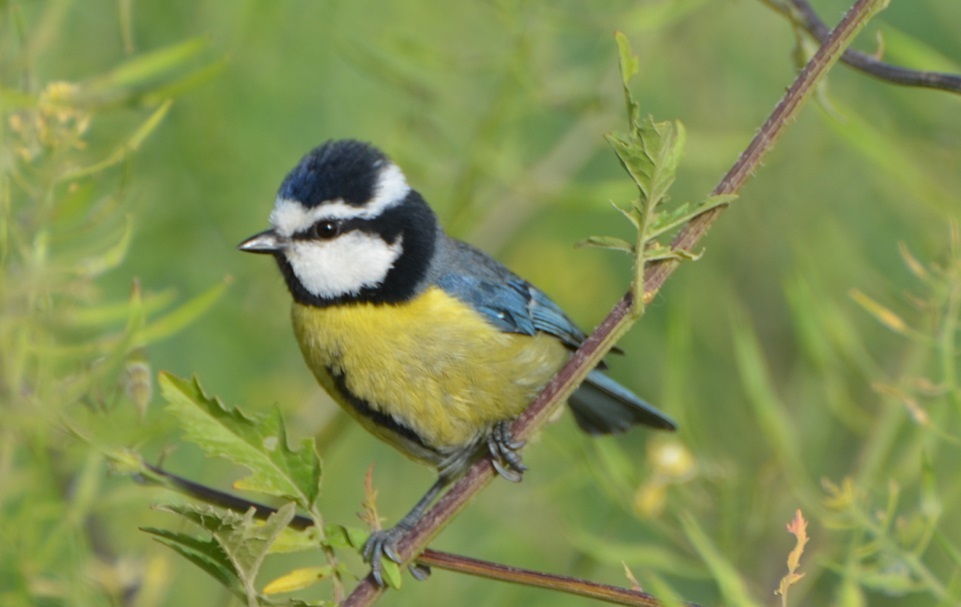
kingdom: Animalia
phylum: Chordata
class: Aves
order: Passeriformes
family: Paridae
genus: Cyanistes
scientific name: Cyanistes teneriffae
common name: African blue tit
